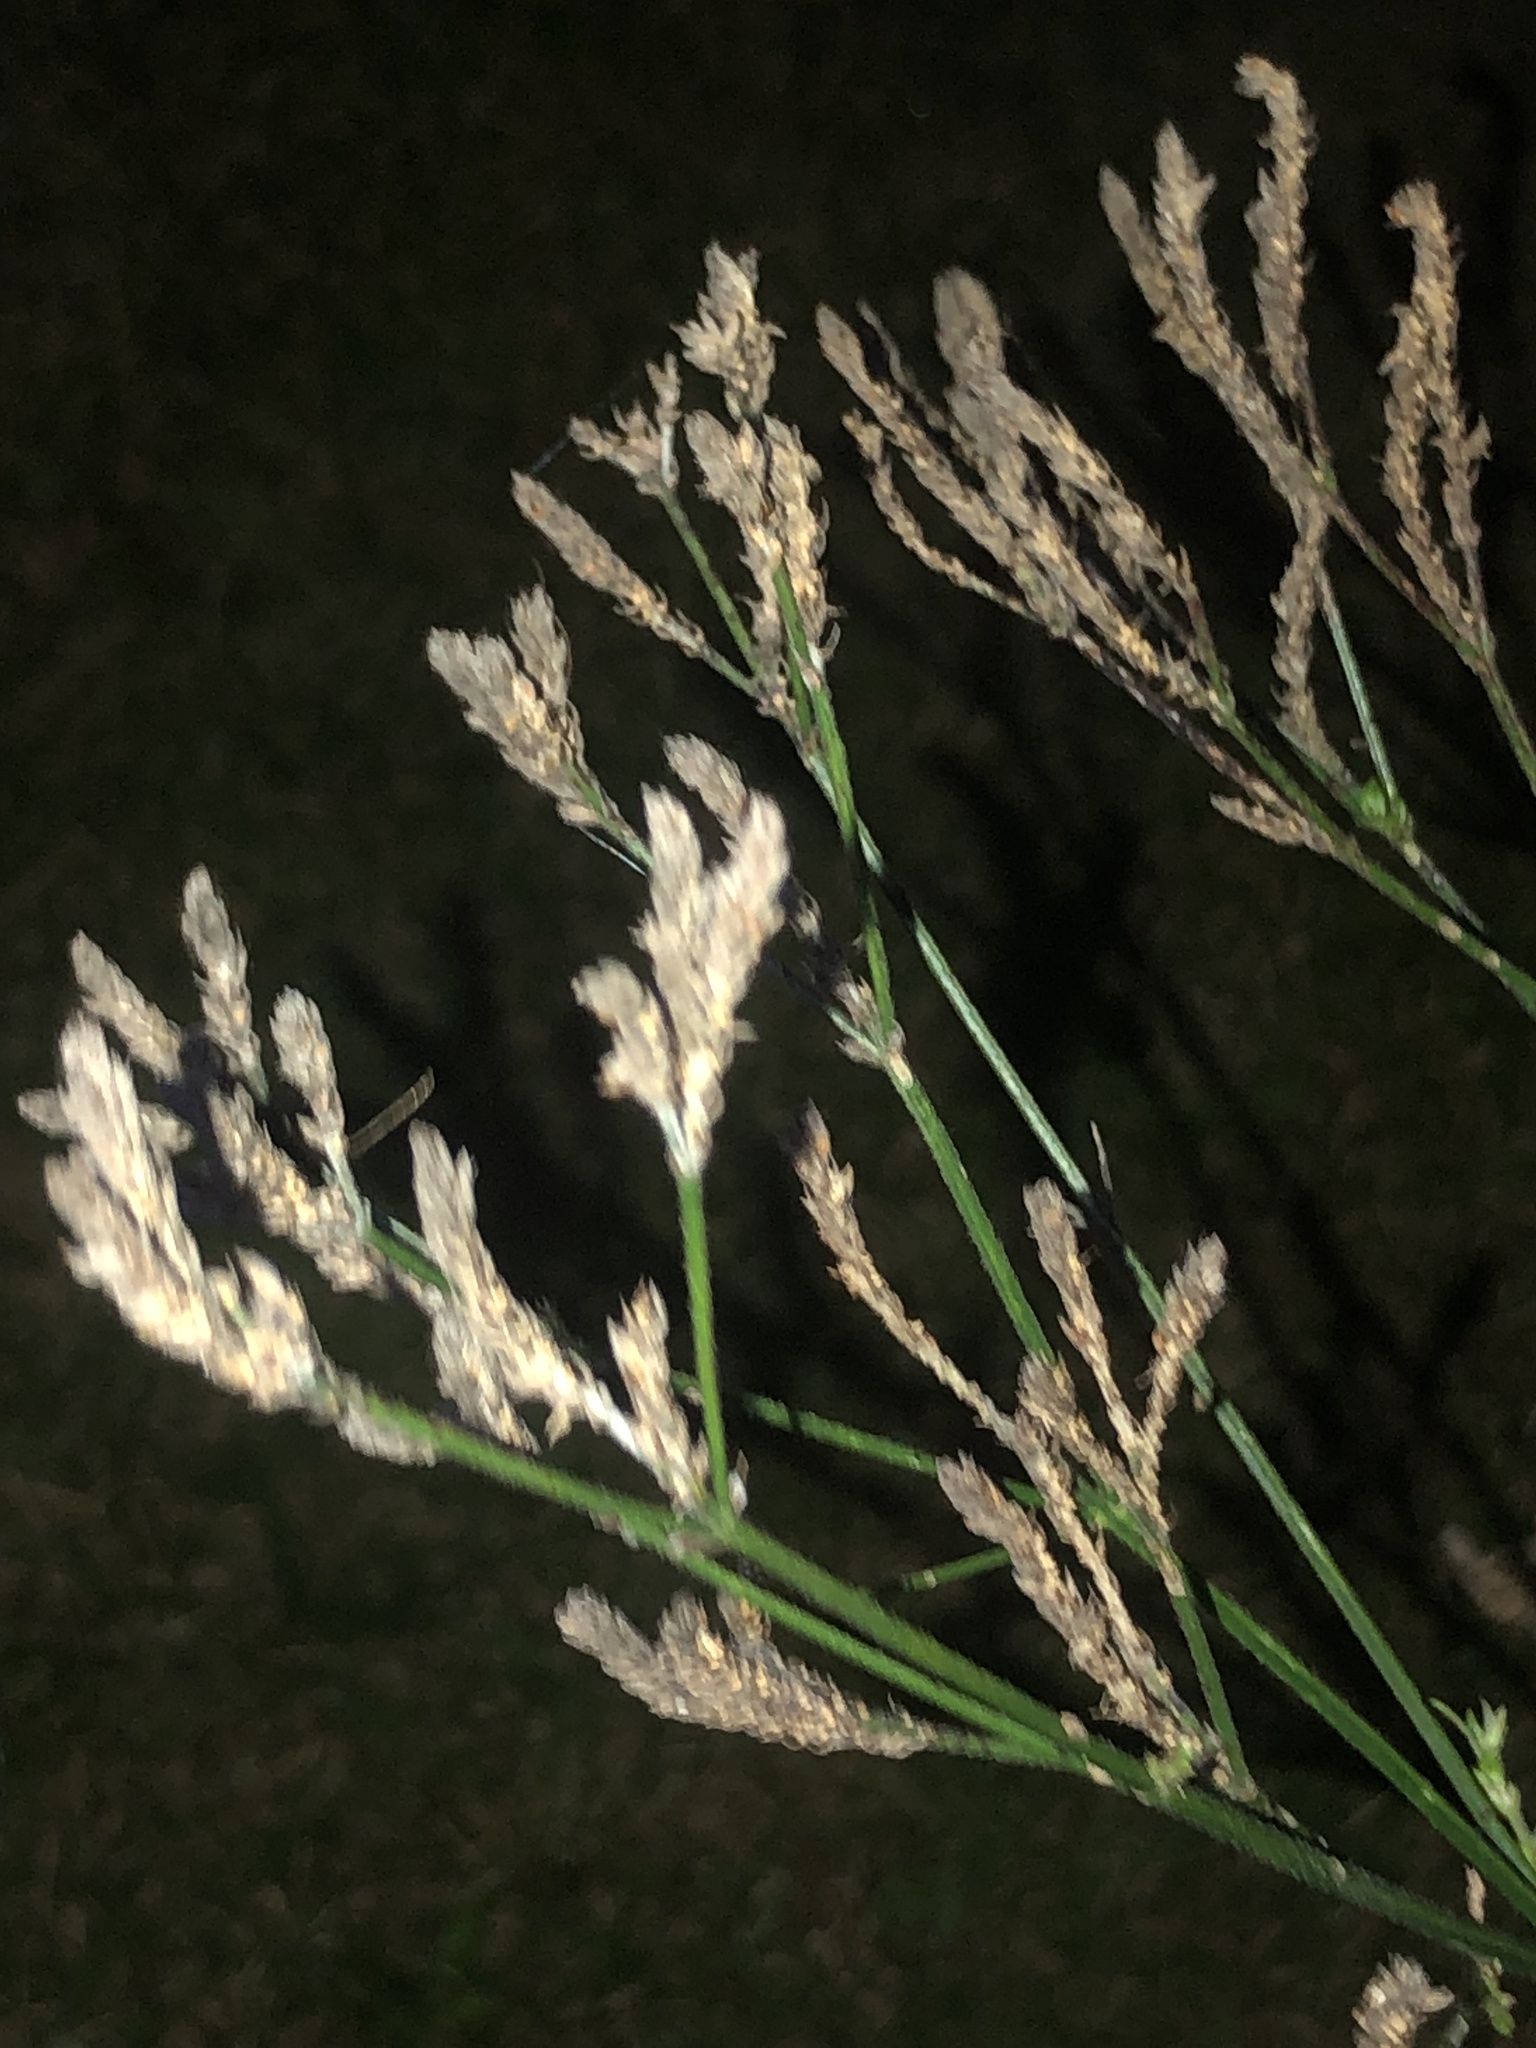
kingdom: Plantae
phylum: Tracheophyta
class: Magnoliopsida
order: Lamiales
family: Verbenaceae
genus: Verbena
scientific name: Verbena brasiliensis
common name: Brazilian vervain
